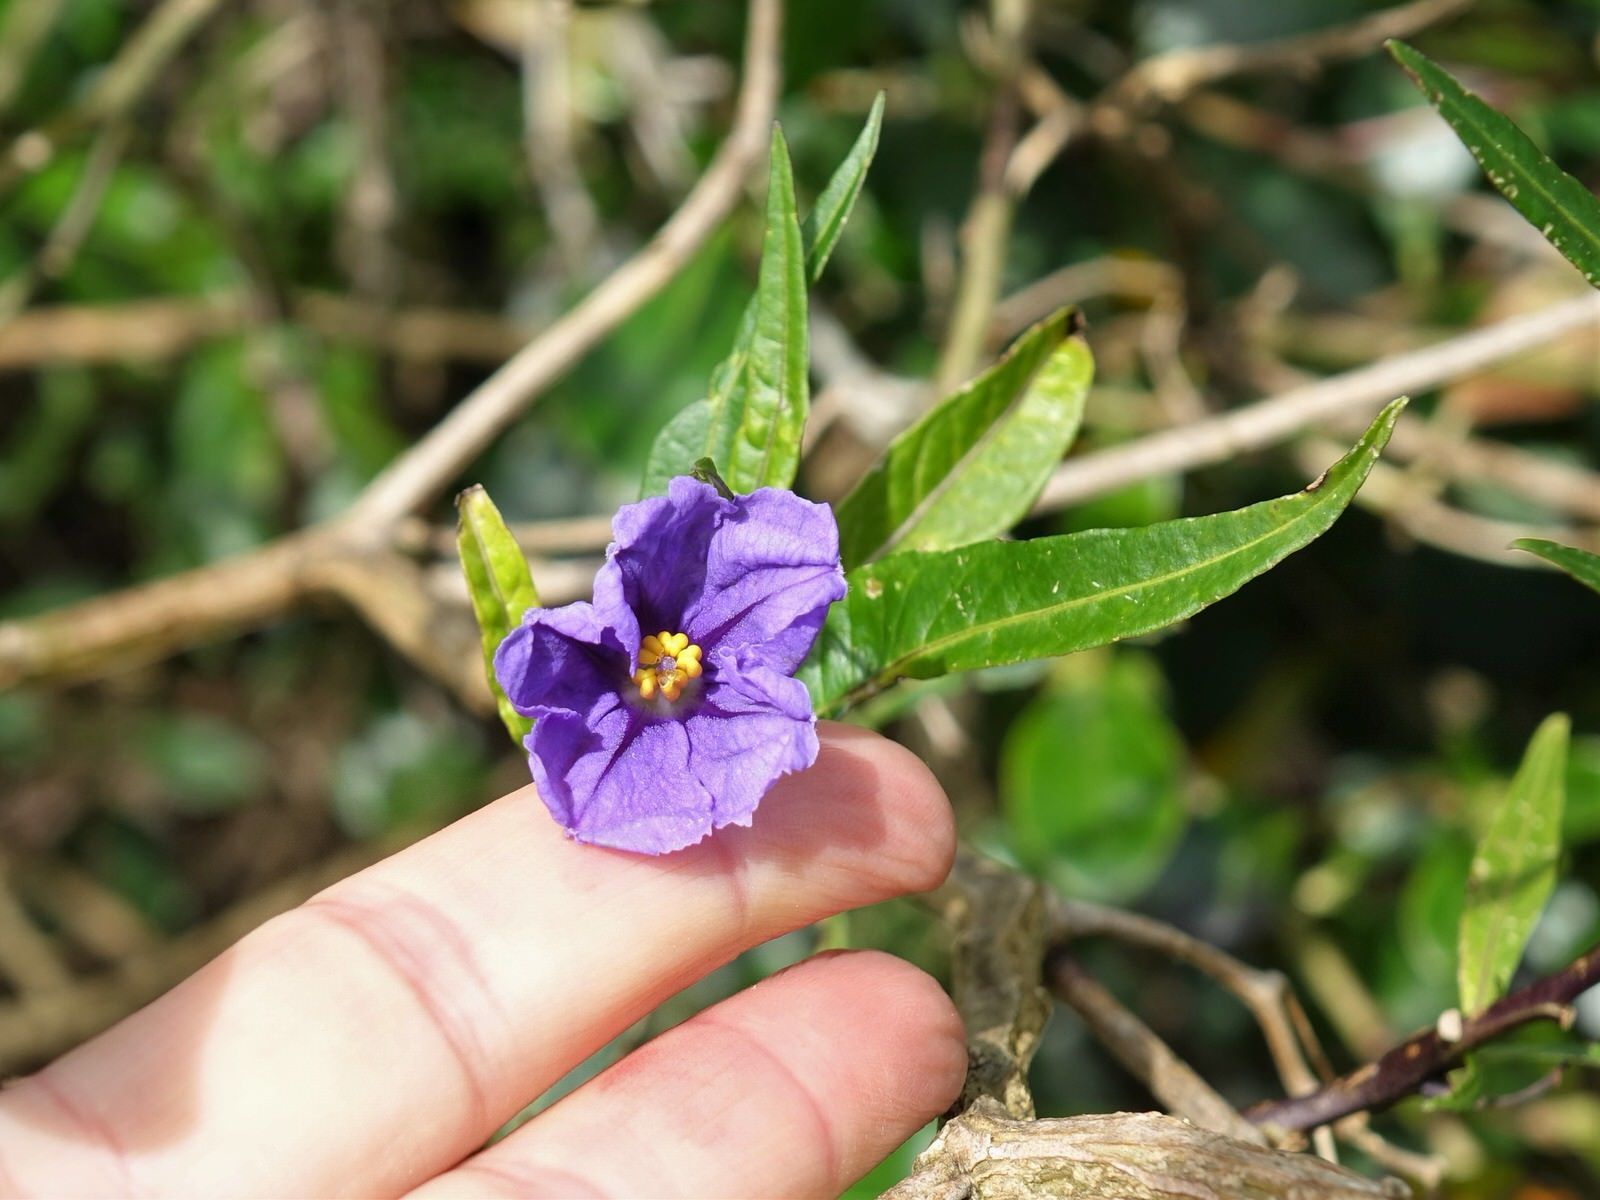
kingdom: Plantae
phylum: Tracheophyta
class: Magnoliopsida
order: Solanales
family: Solanaceae
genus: Solanum
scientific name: Solanum laciniatum
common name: Kangaroo-apple
